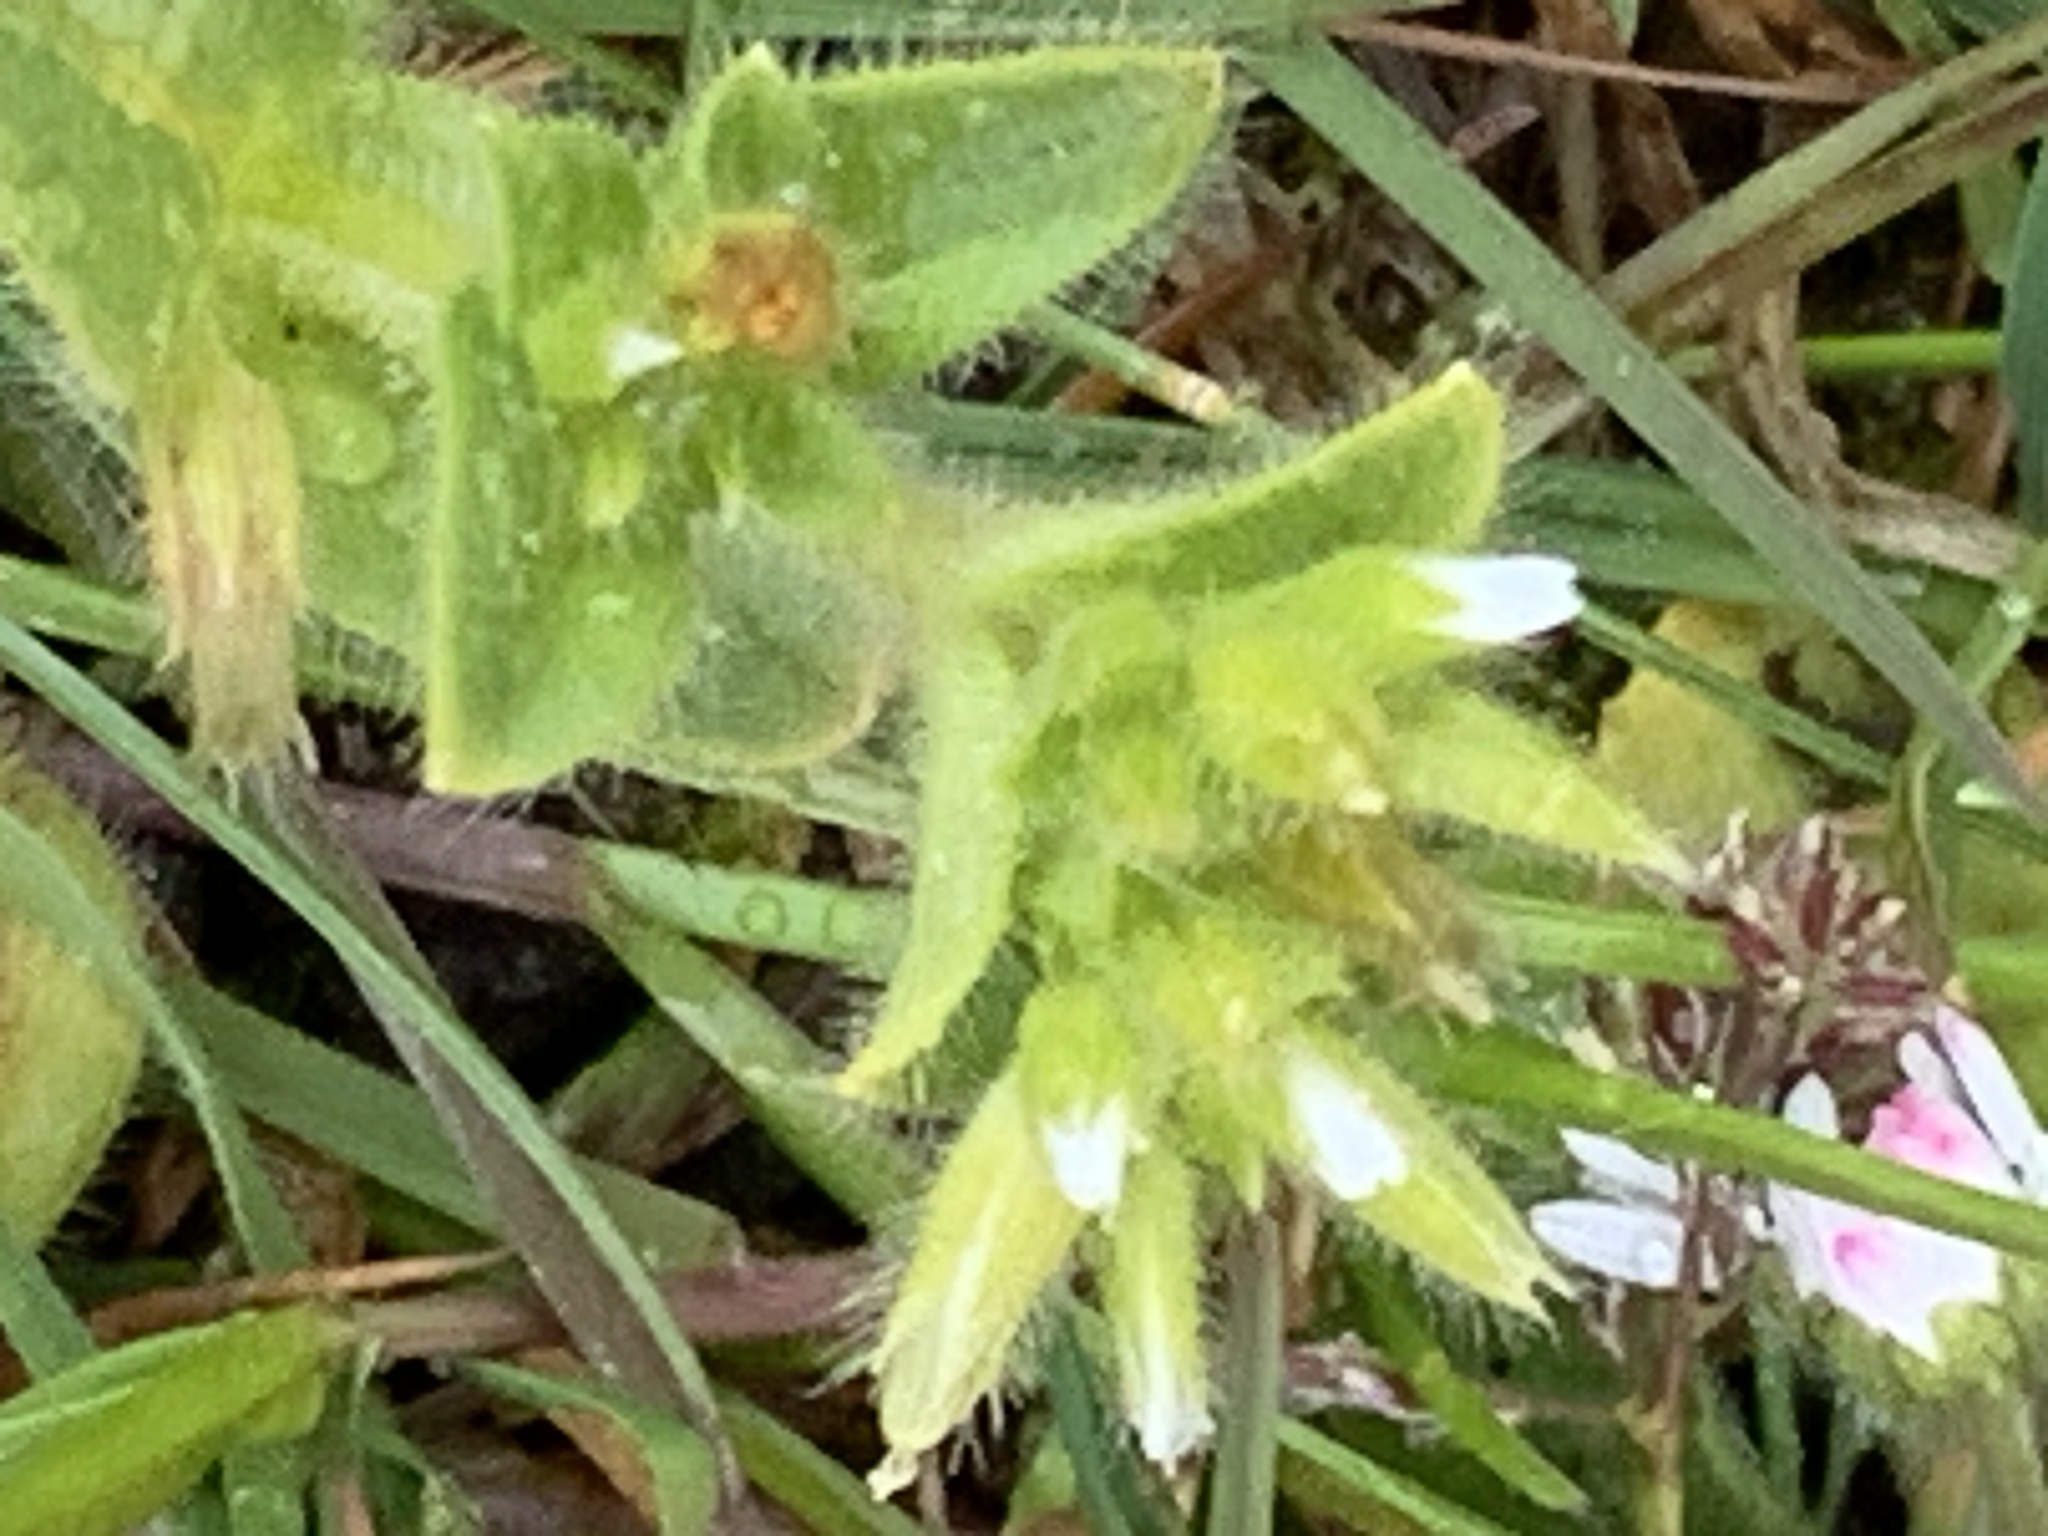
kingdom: Plantae
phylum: Tracheophyta
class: Magnoliopsida
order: Caryophyllales
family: Caryophyllaceae
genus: Cerastium
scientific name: Cerastium glomeratum
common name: Sticky chickweed
